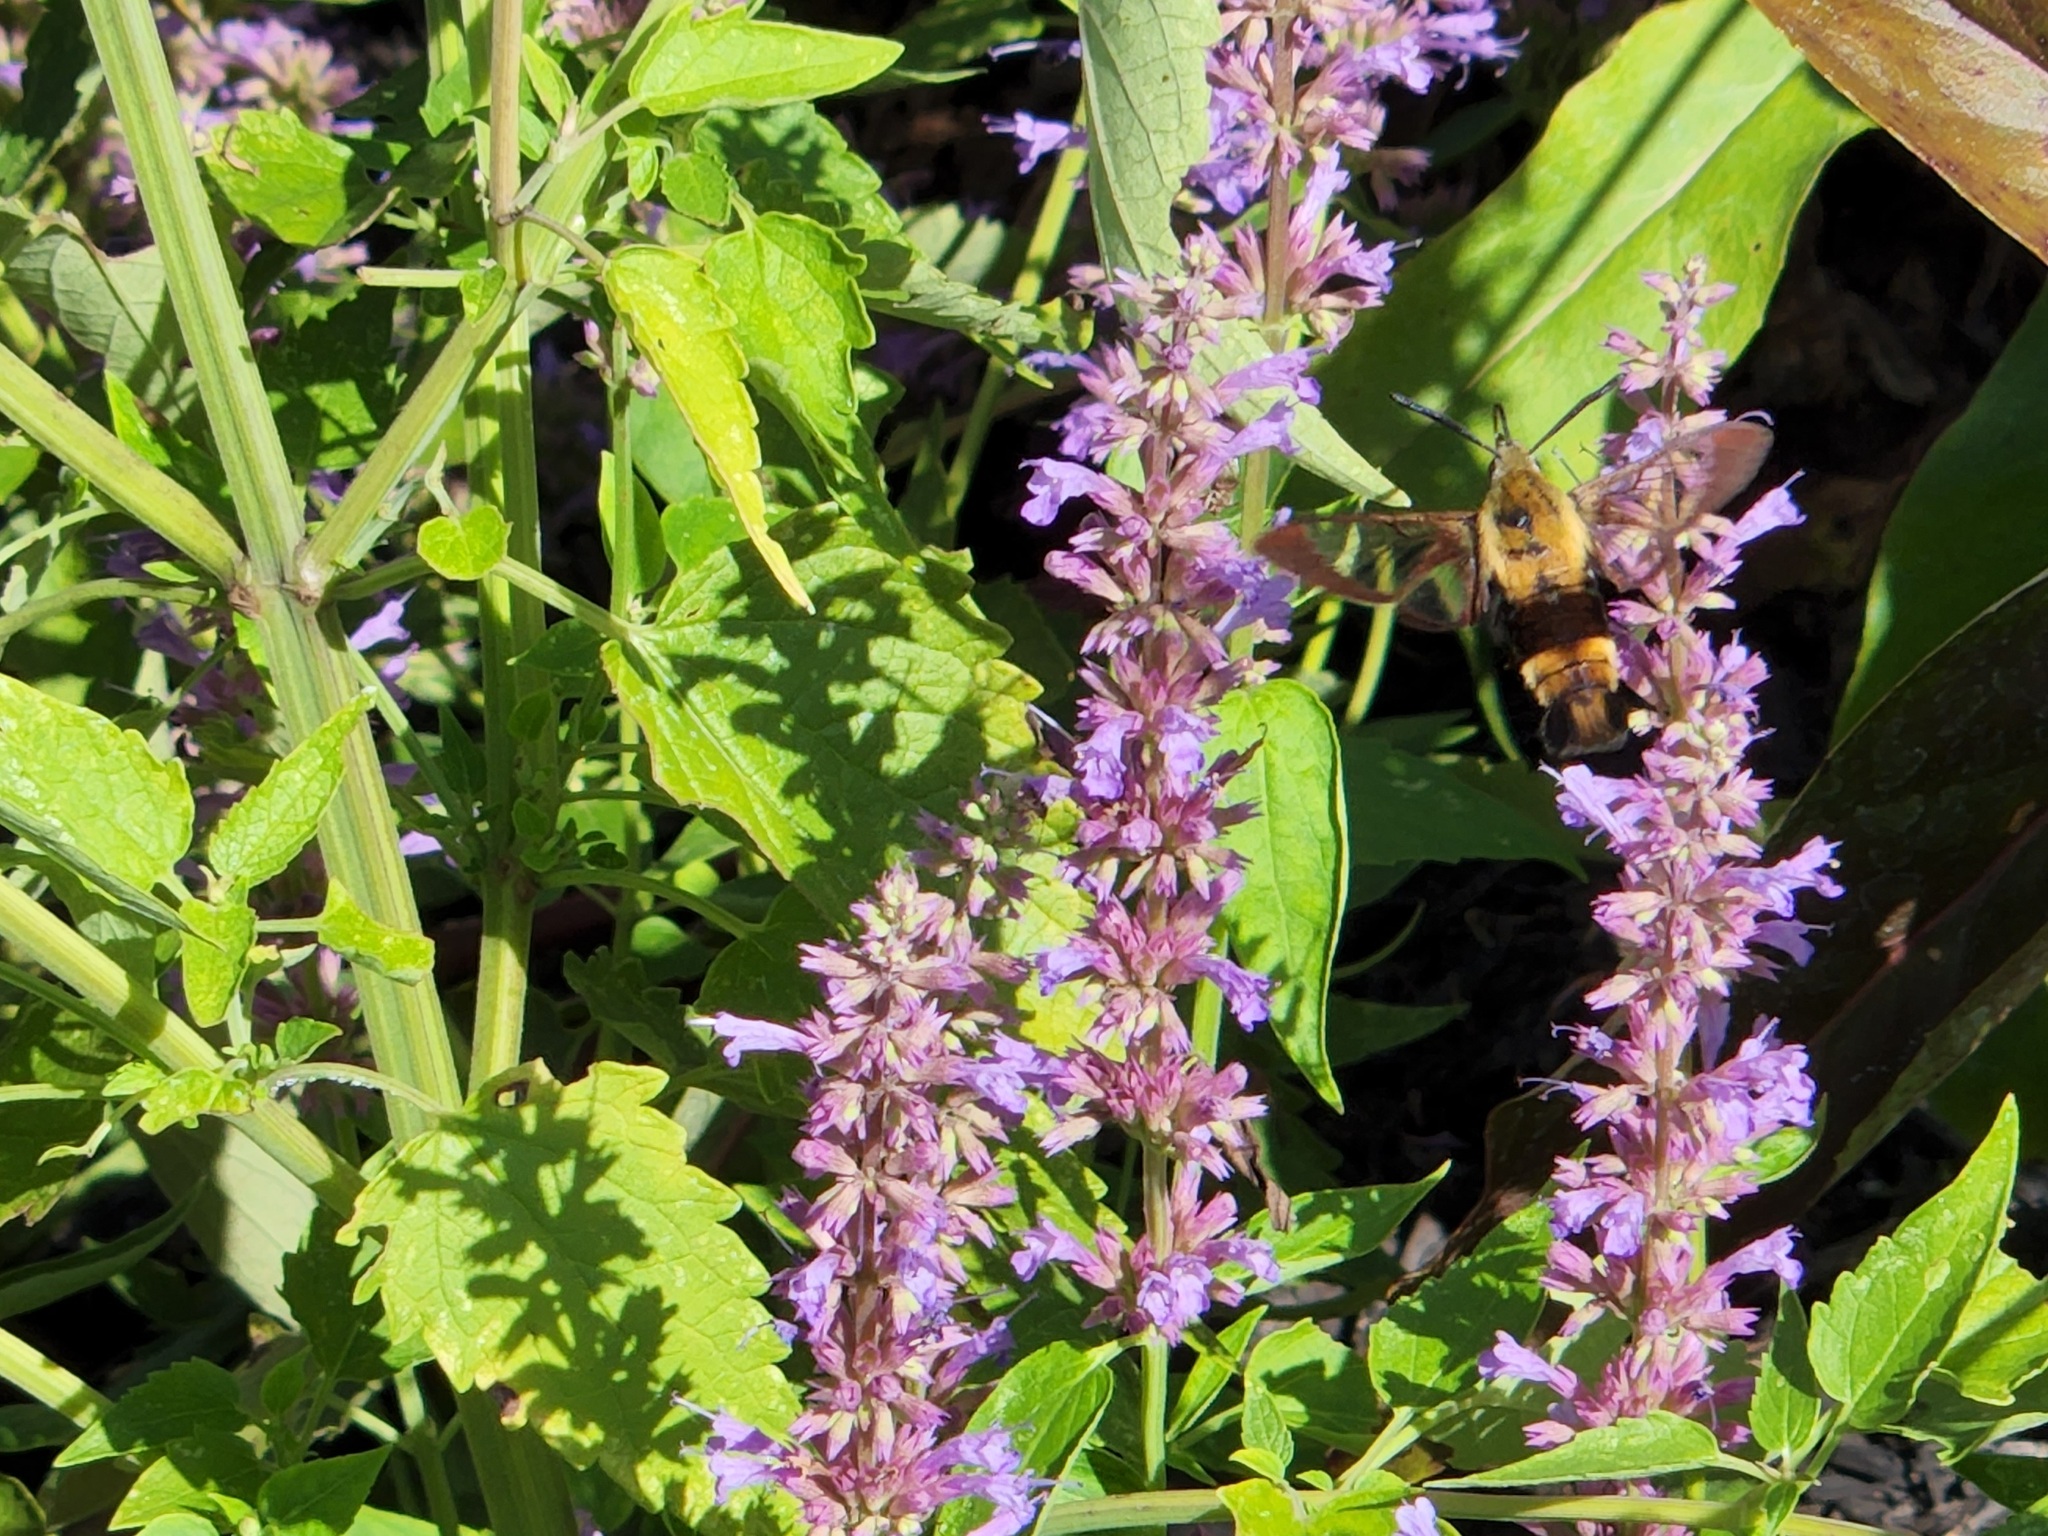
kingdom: Animalia
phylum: Arthropoda
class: Insecta
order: Lepidoptera
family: Sphingidae
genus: Hemaris
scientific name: Hemaris diffinis
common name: Bumblebee moth
